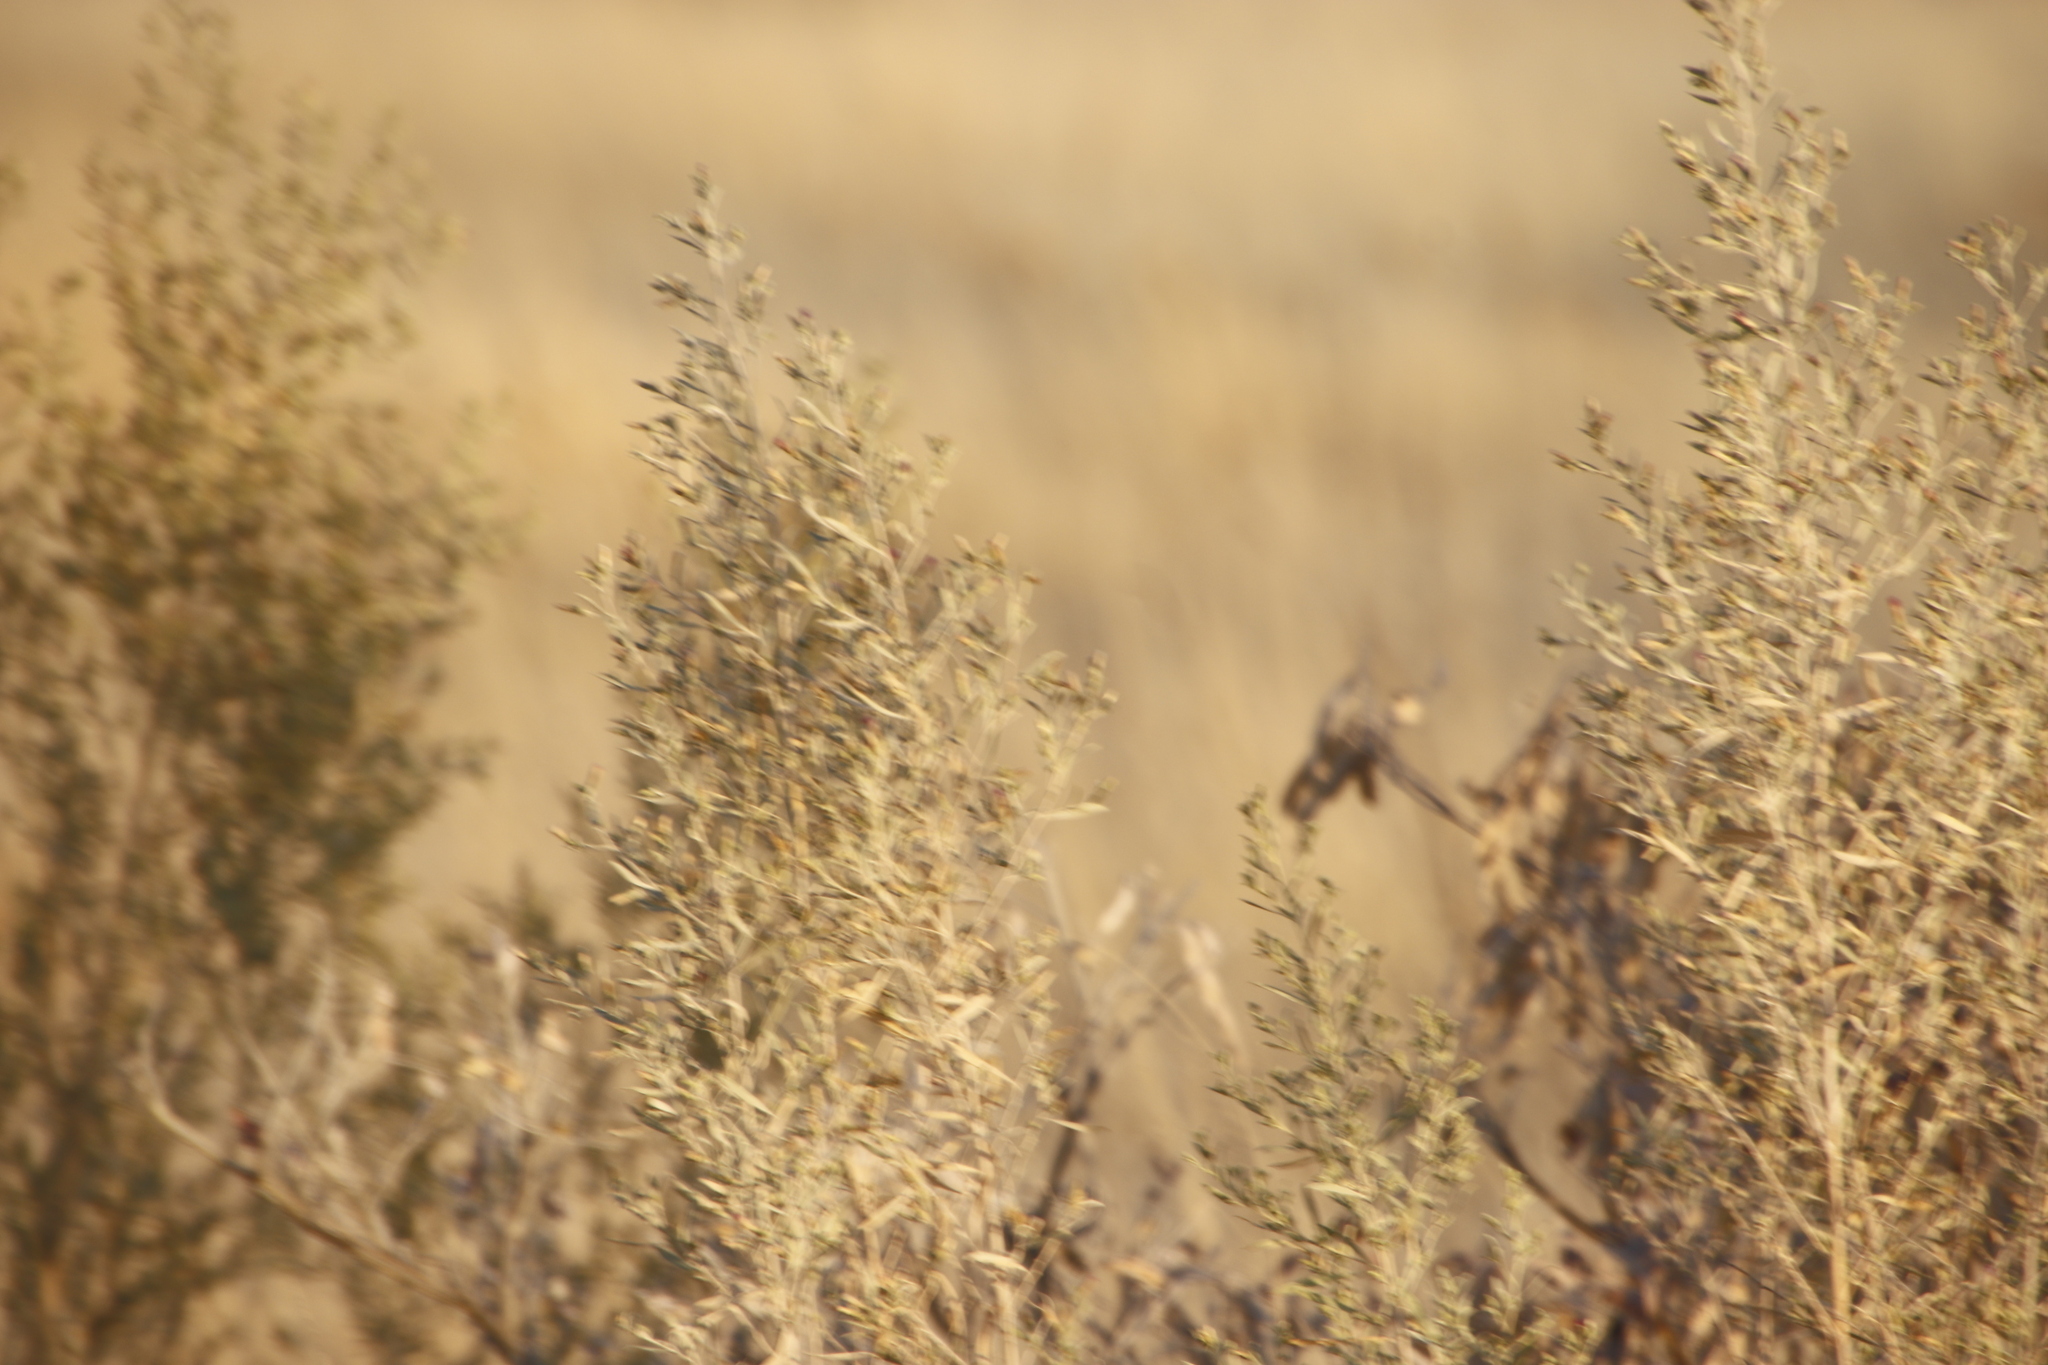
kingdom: Plantae
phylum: Tracheophyta
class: Magnoliopsida
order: Asterales
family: Asteraceae
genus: Pechuel-loeschea
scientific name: Pechuel-loeschea leubnitziae
